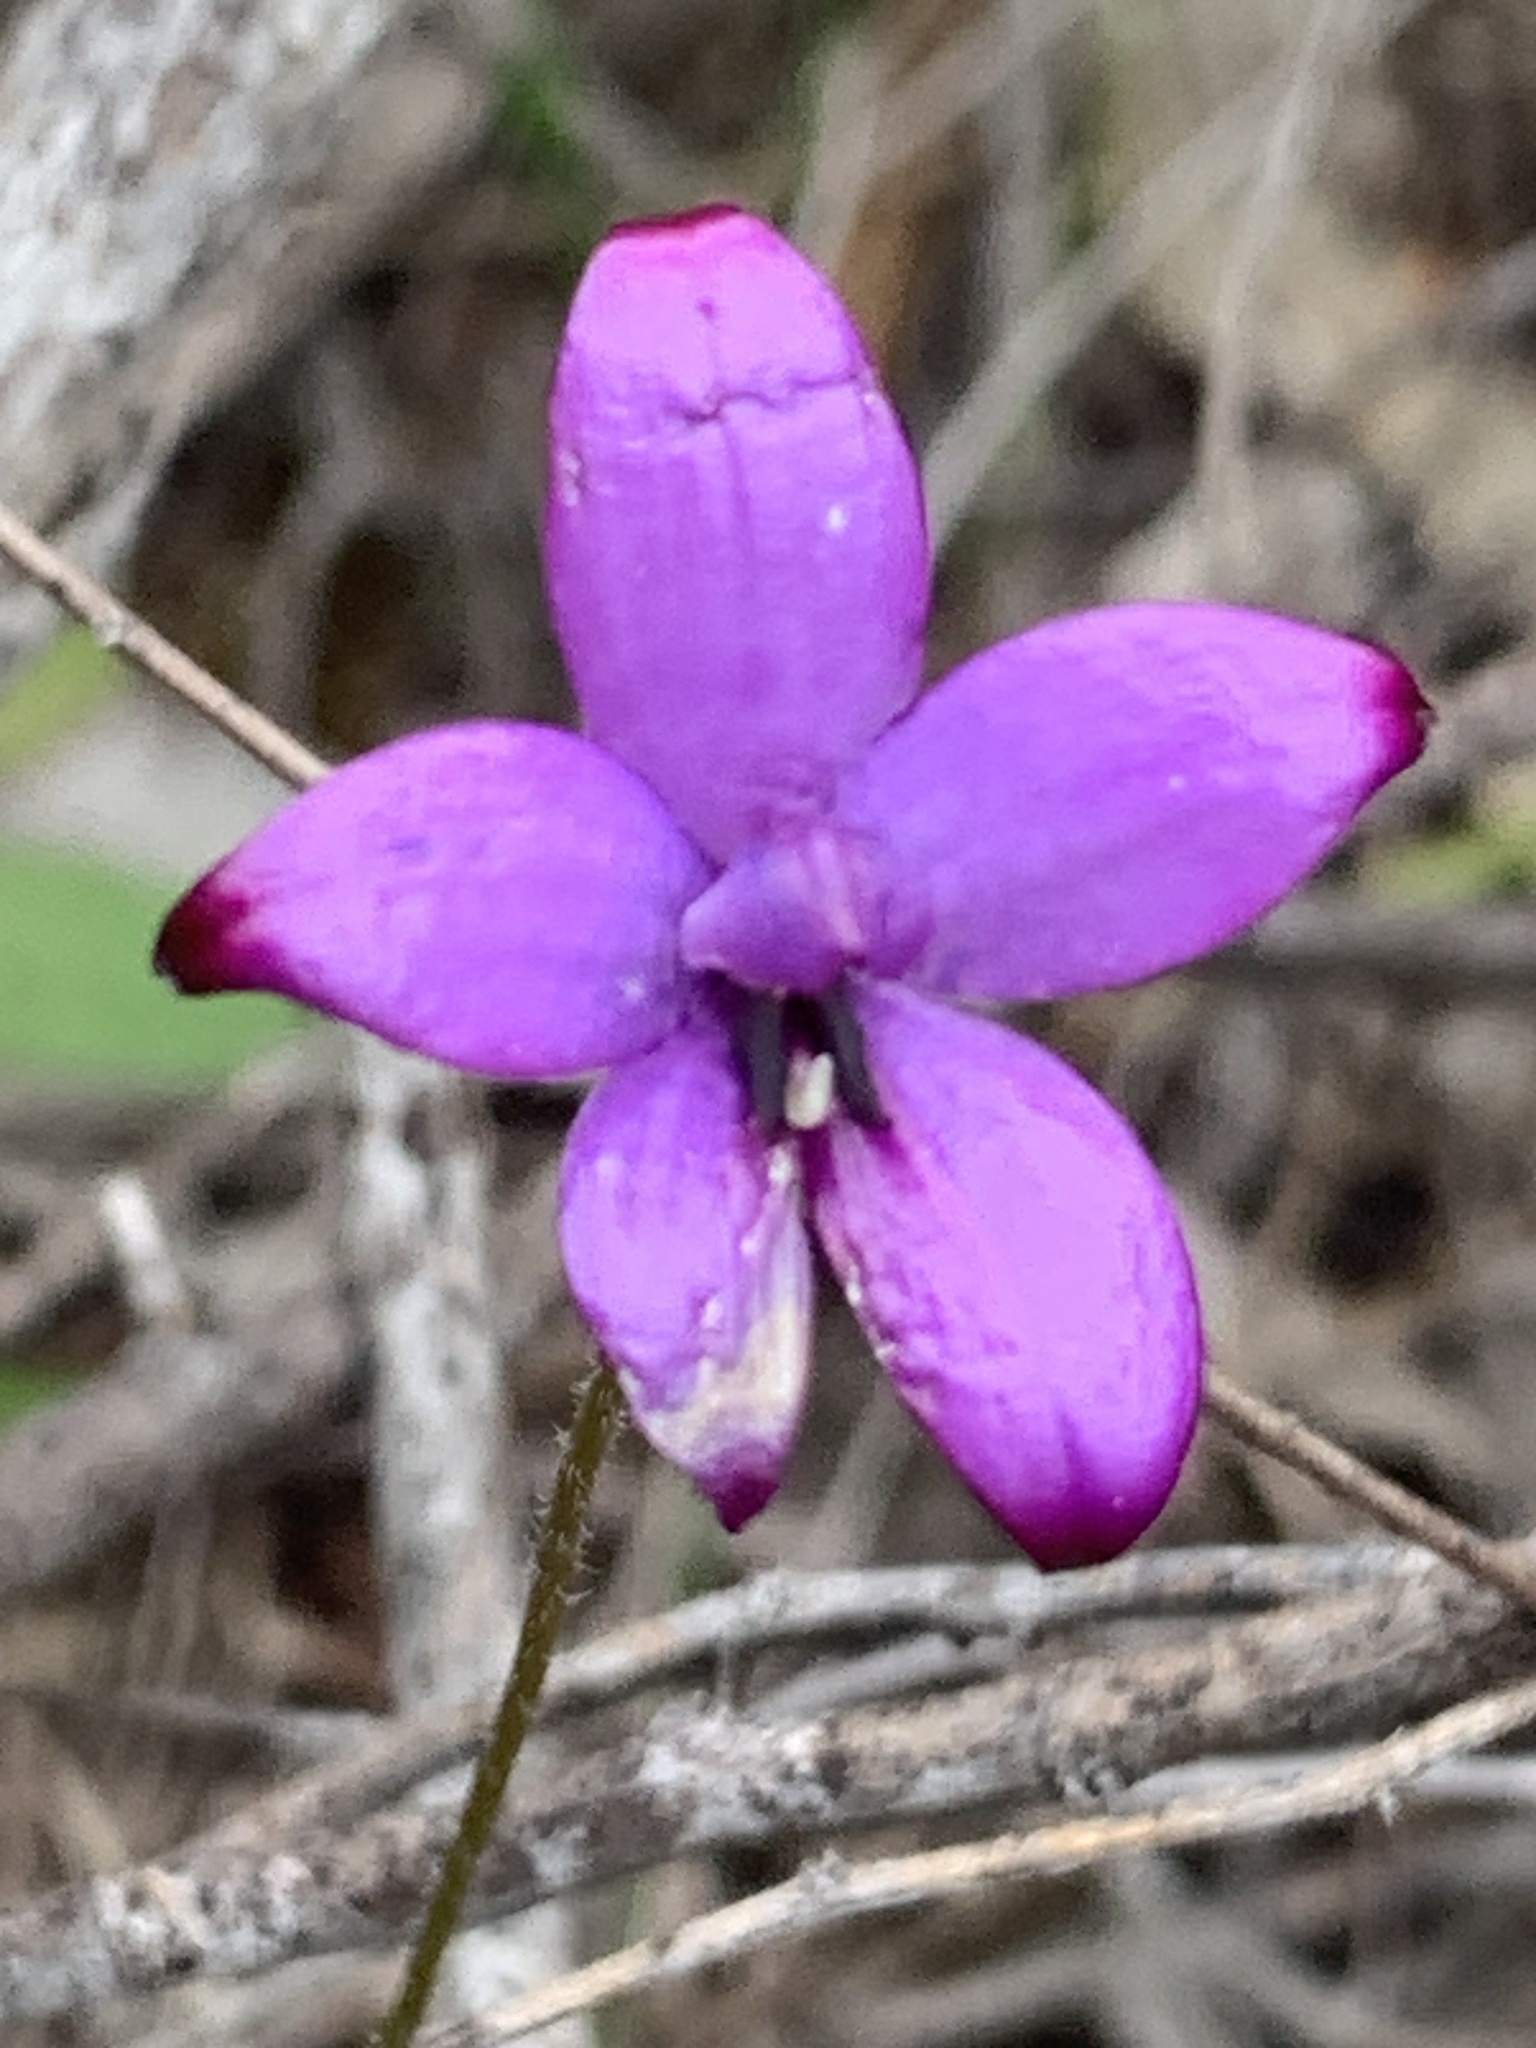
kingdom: Plantae
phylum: Tracheophyta
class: Liliopsida
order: Asparagales
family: Orchidaceae
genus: Caladenia
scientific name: Caladenia brunonis
